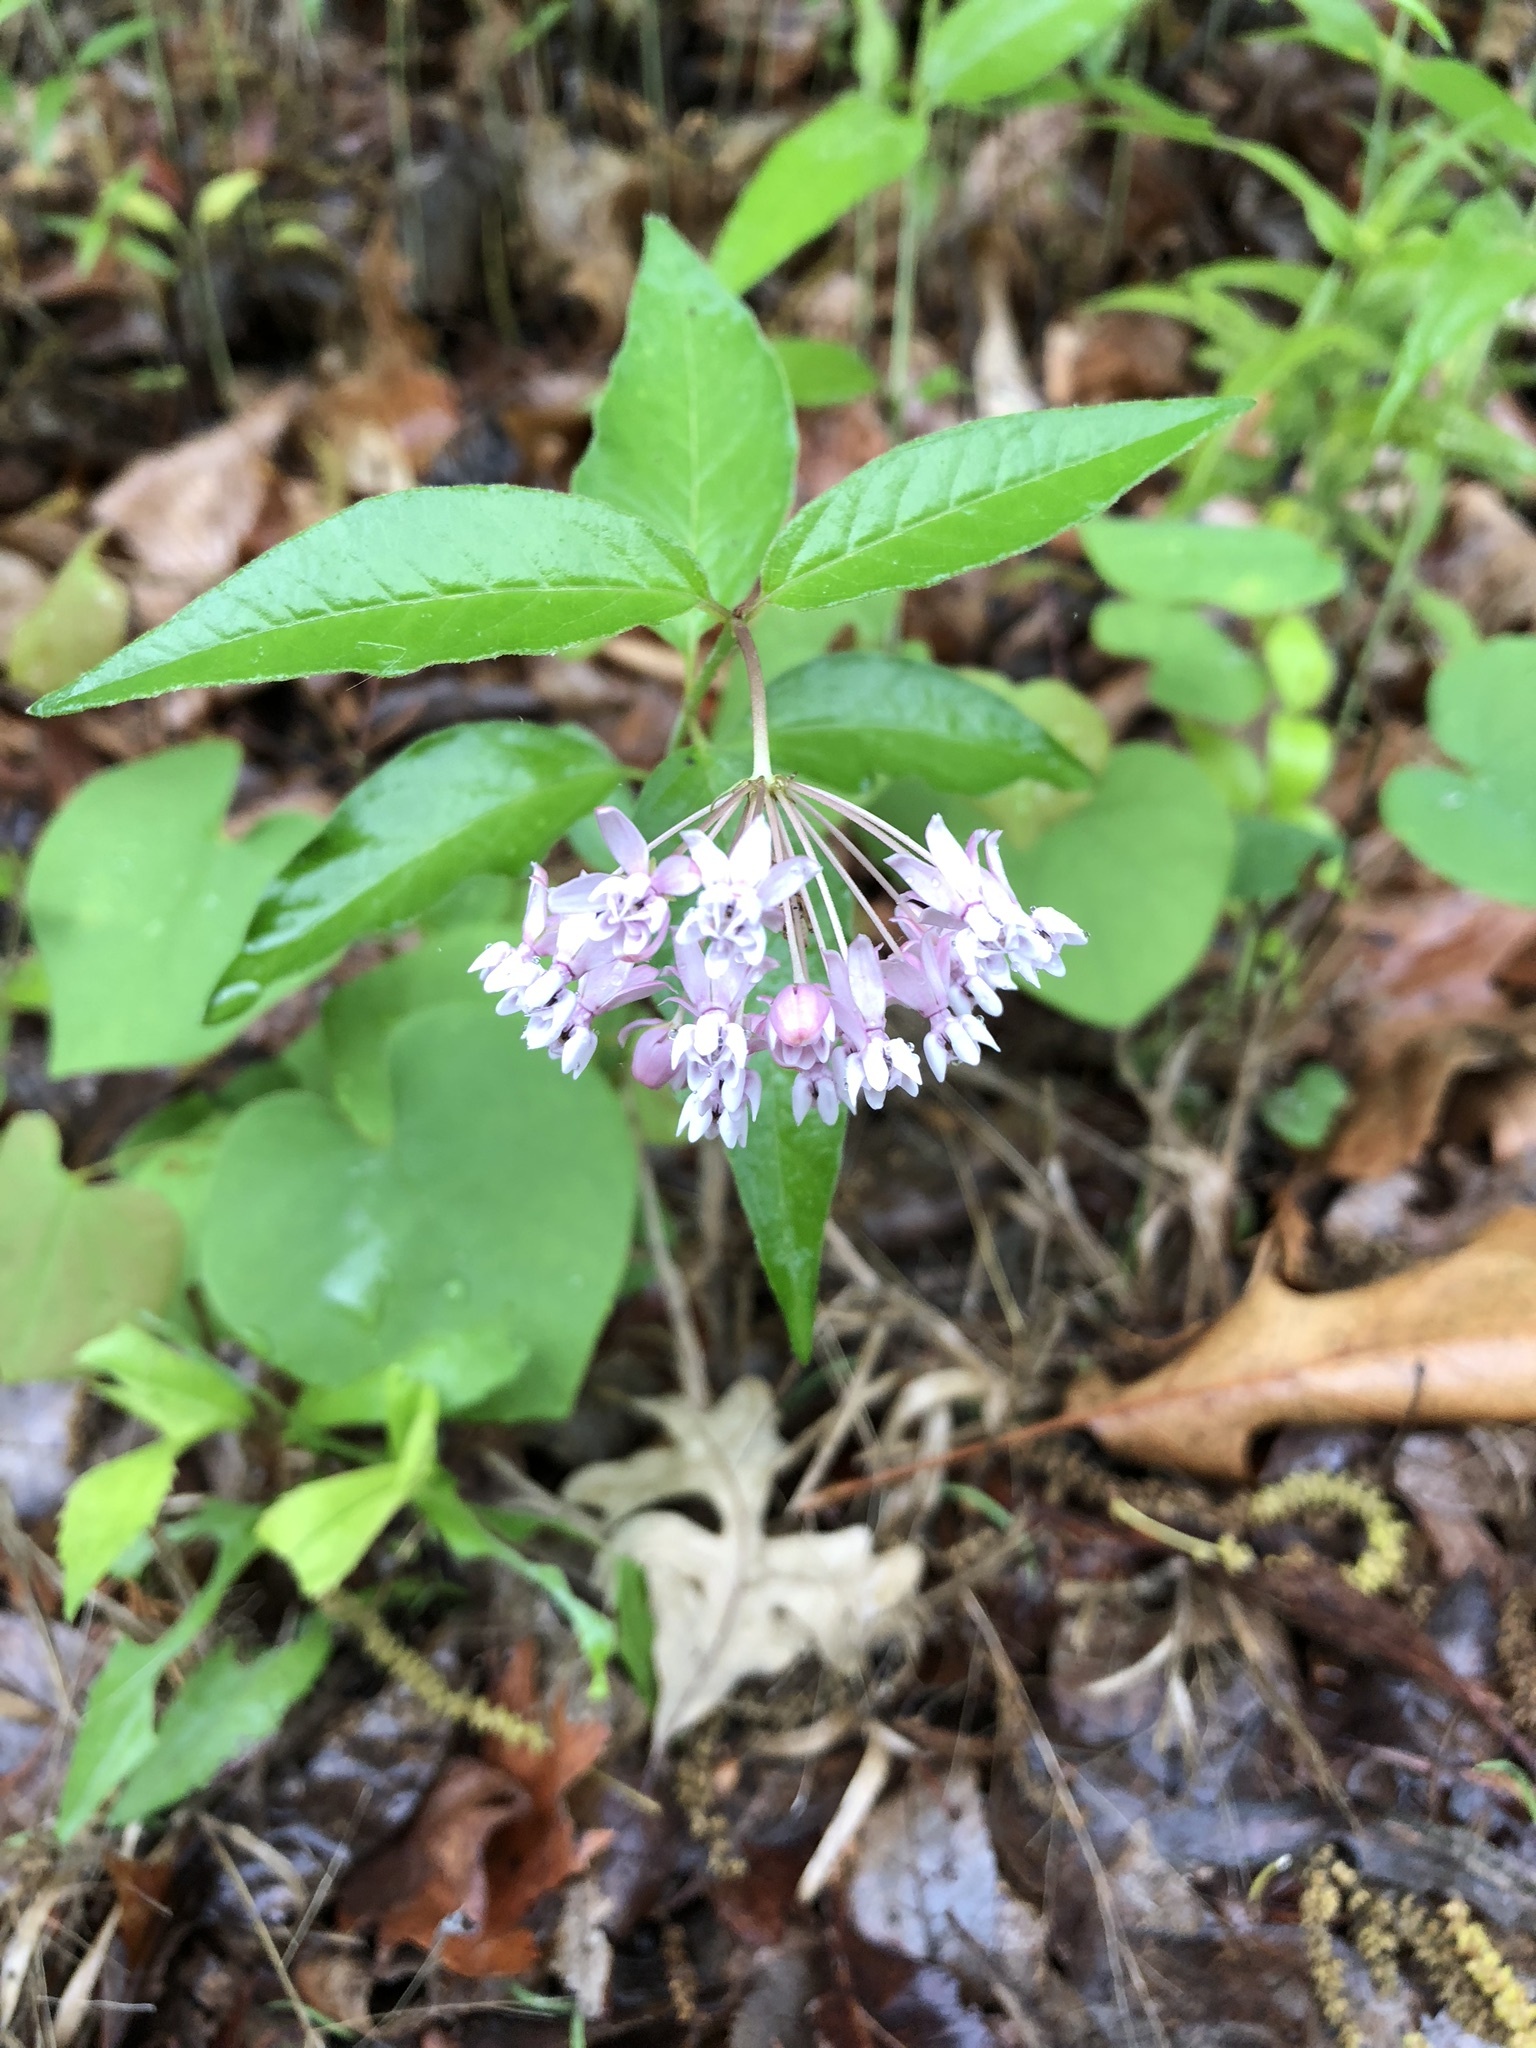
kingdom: Plantae
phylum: Tracheophyta
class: Magnoliopsida
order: Gentianales
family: Apocynaceae
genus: Asclepias
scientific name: Asclepias quadrifolia
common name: Whorled milkweed
